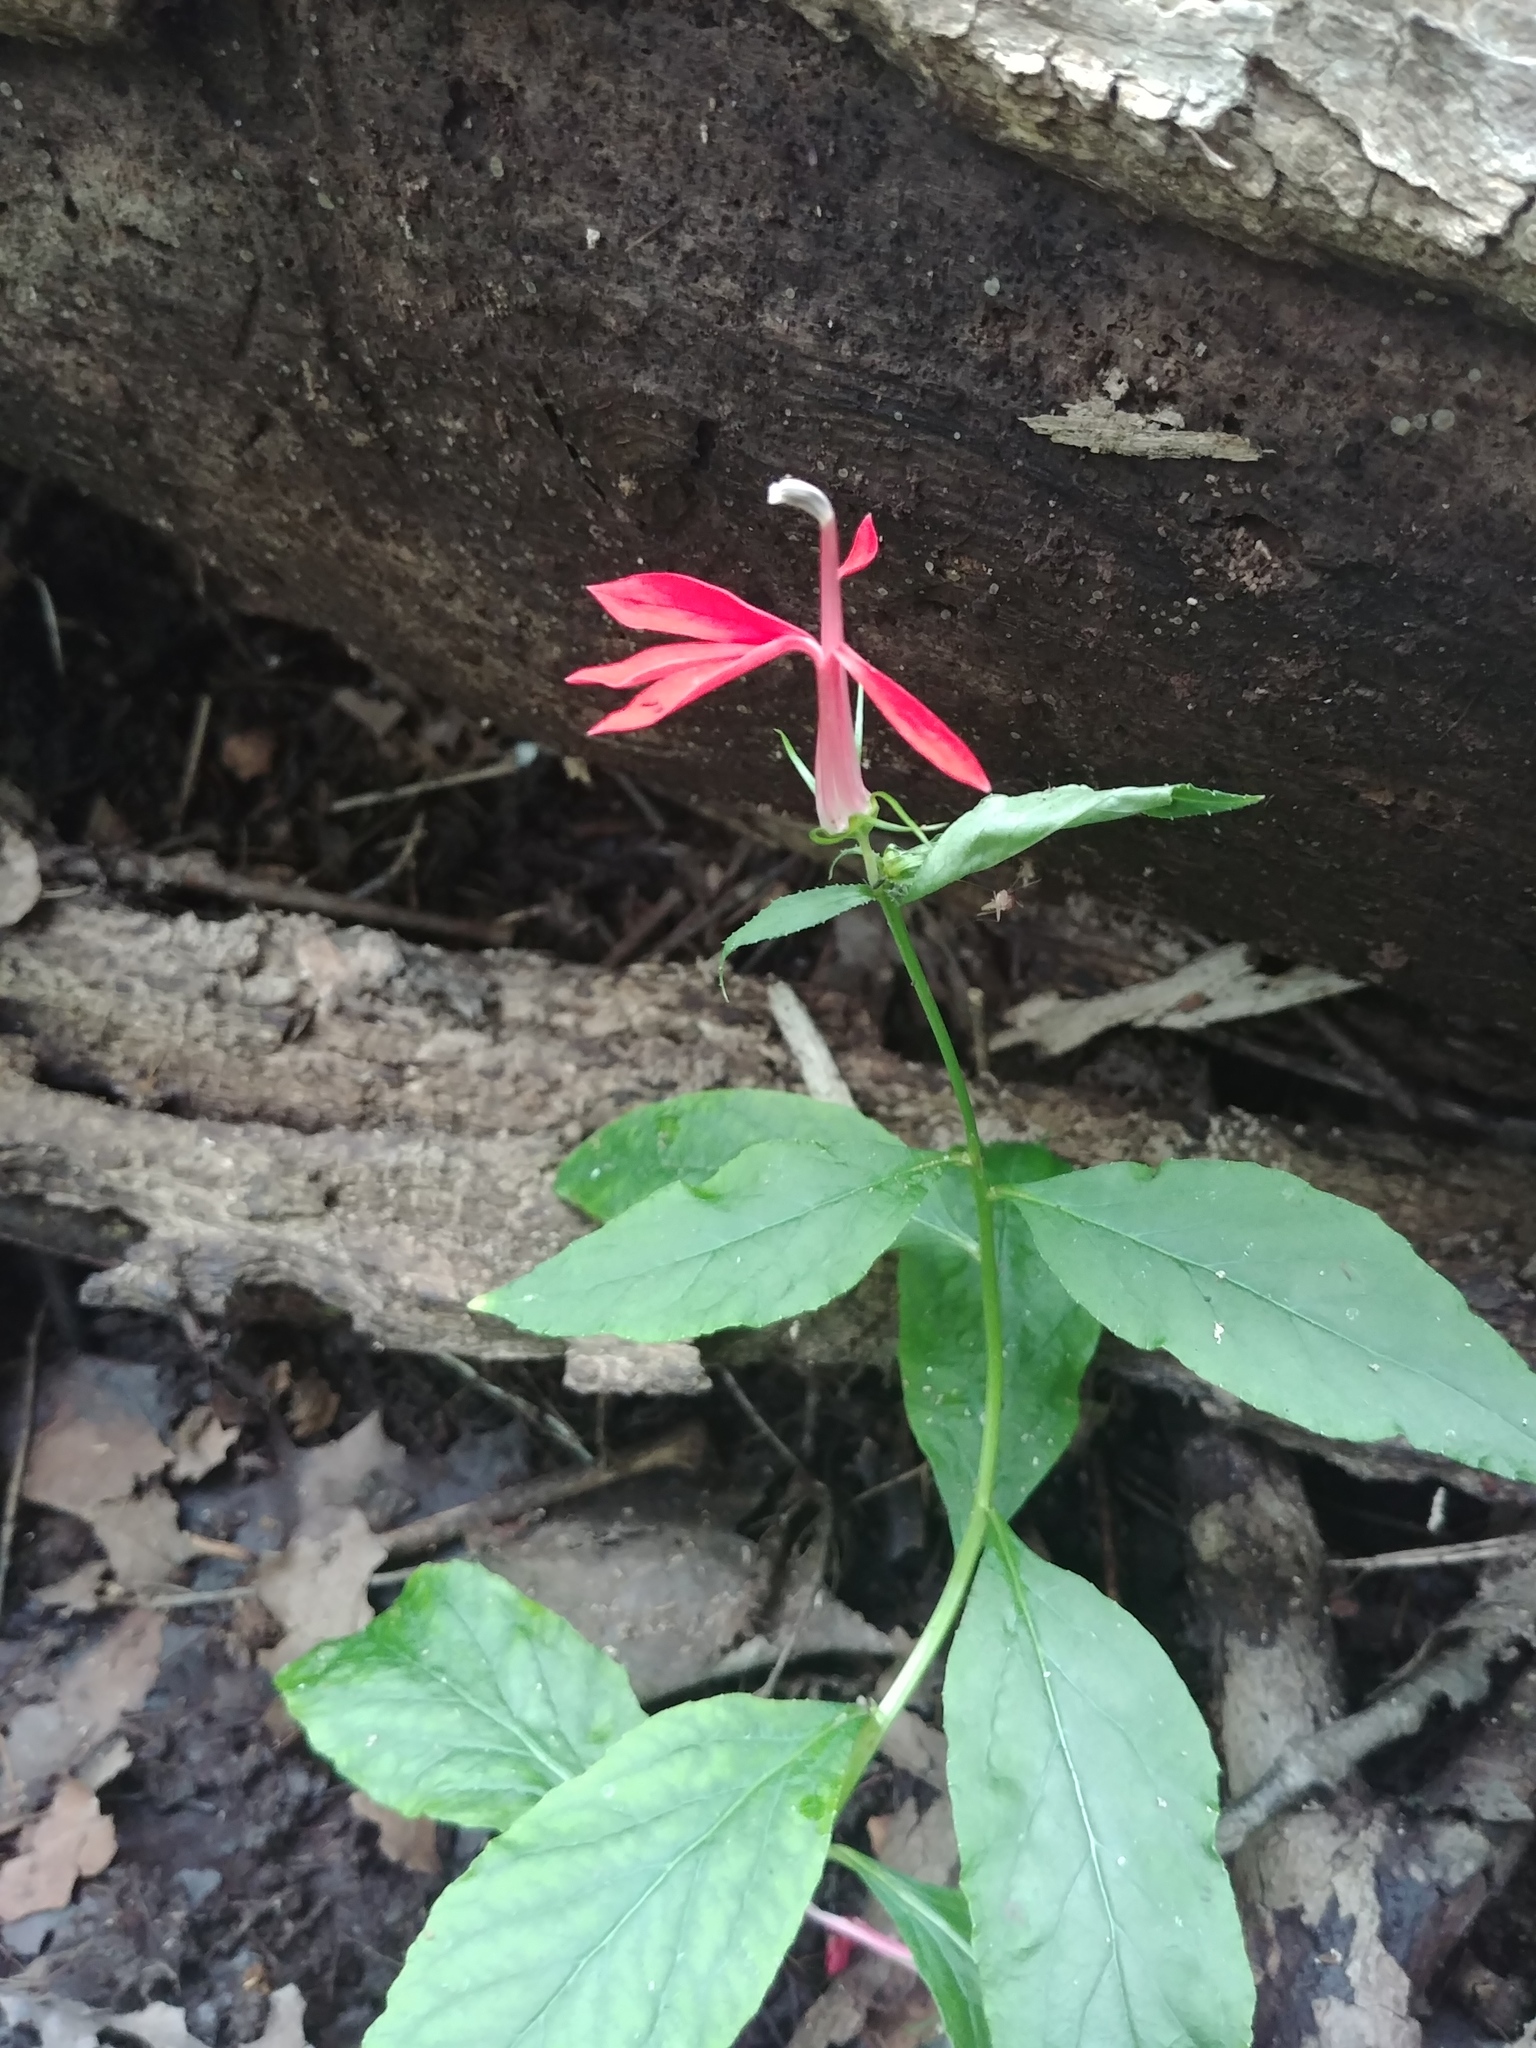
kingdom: Plantae
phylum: Tracheophyta
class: Magnoliopsida
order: Asterales
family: Campanulaceae
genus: Lobelia
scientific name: Lobelia cardinalis
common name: Cardinal flower
